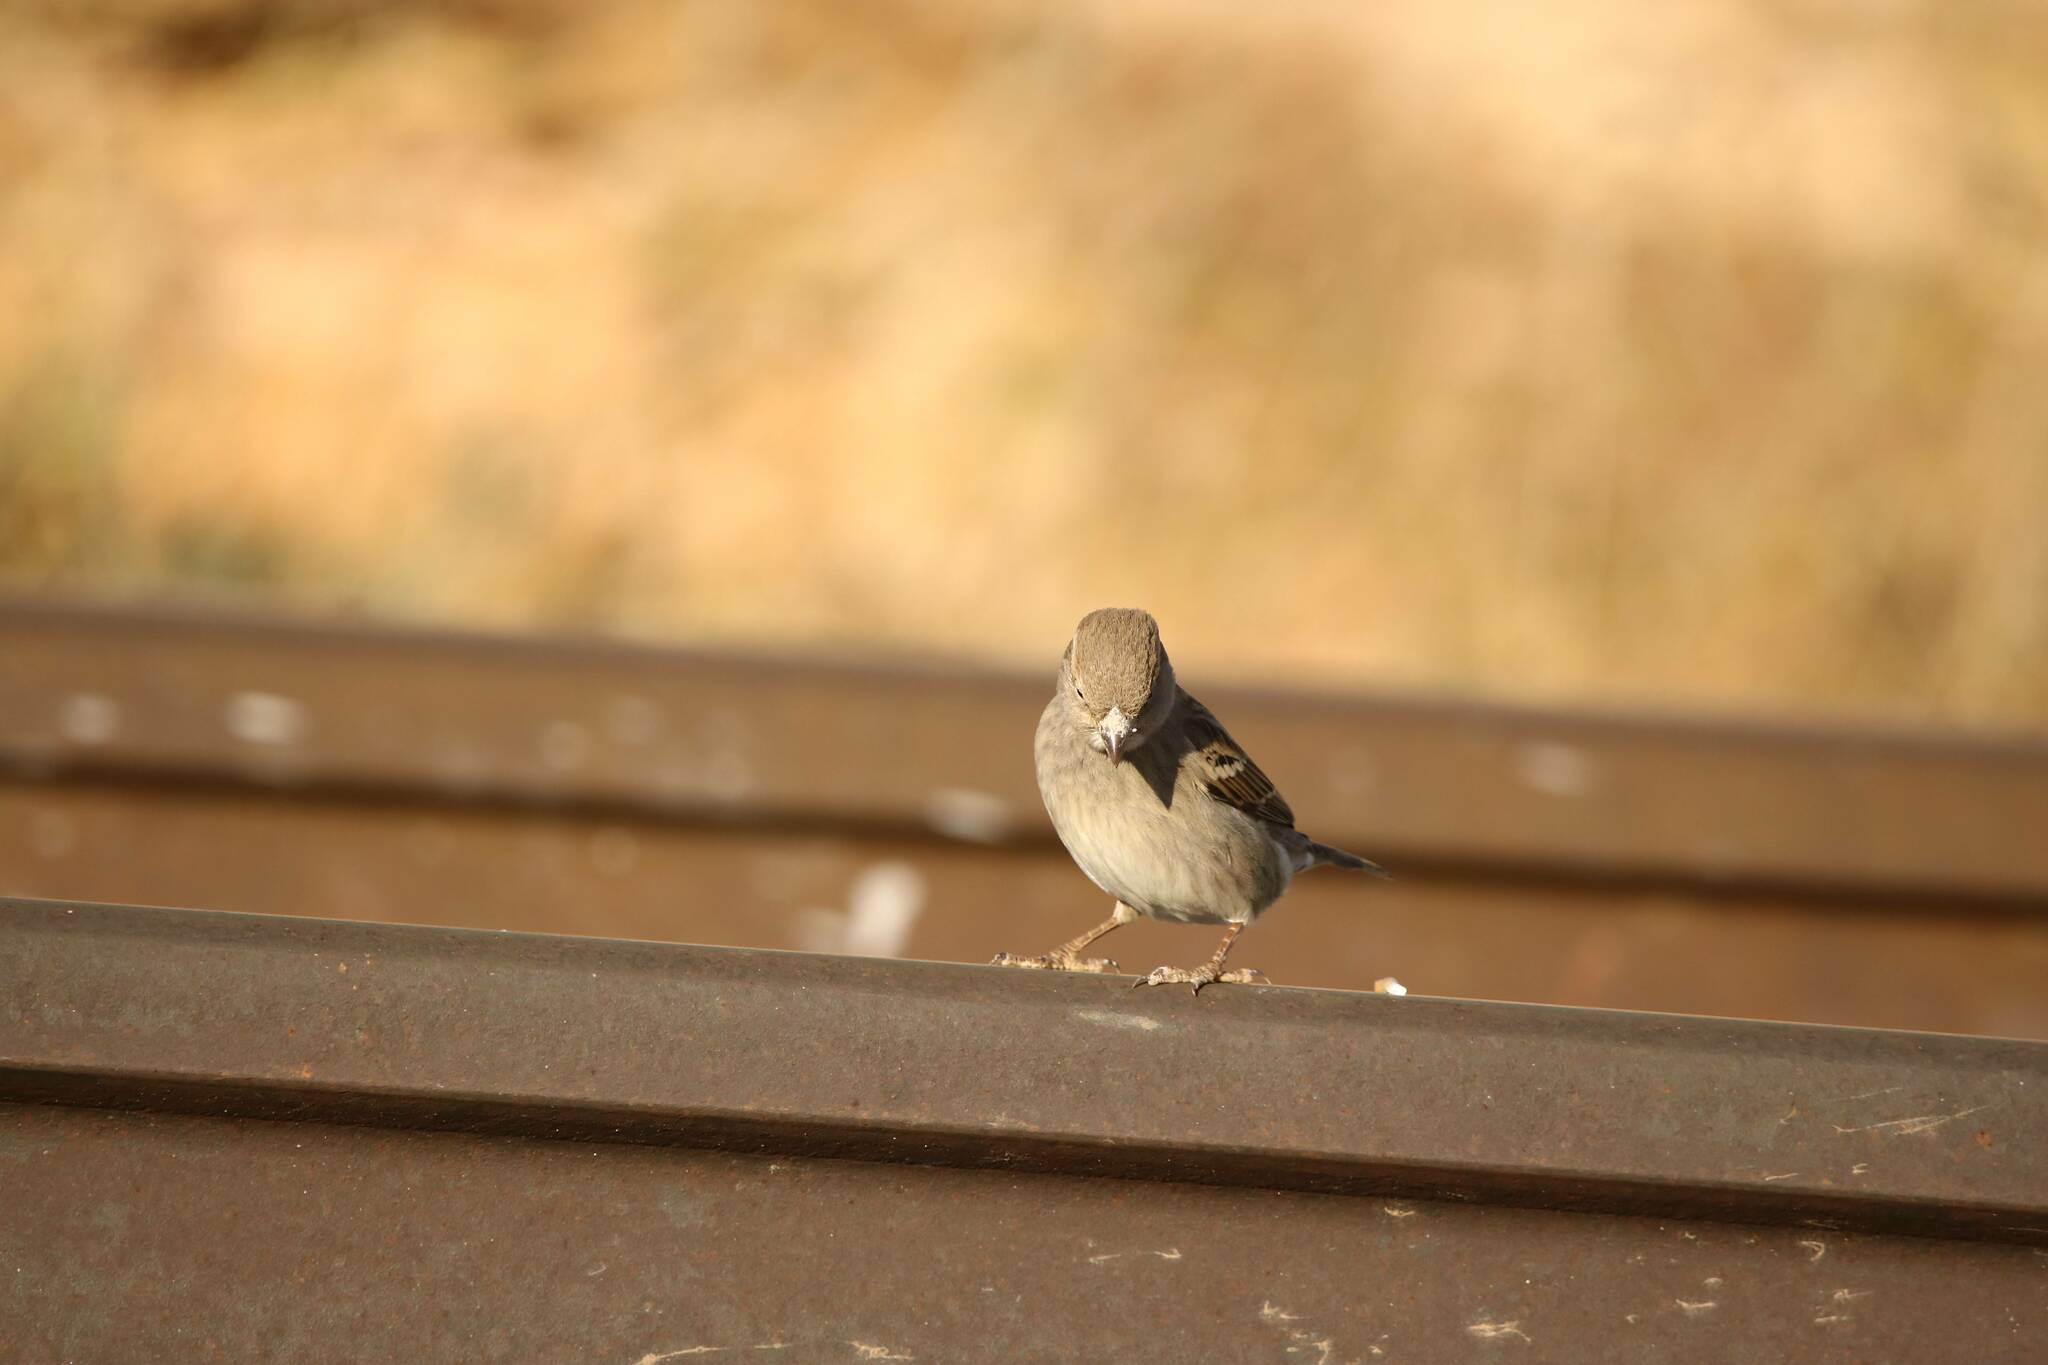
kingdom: Animalia
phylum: Chordata
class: Aves
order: Passeriformes
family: Passeridae
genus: Passer
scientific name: Passer domesticus
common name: House sparrow
